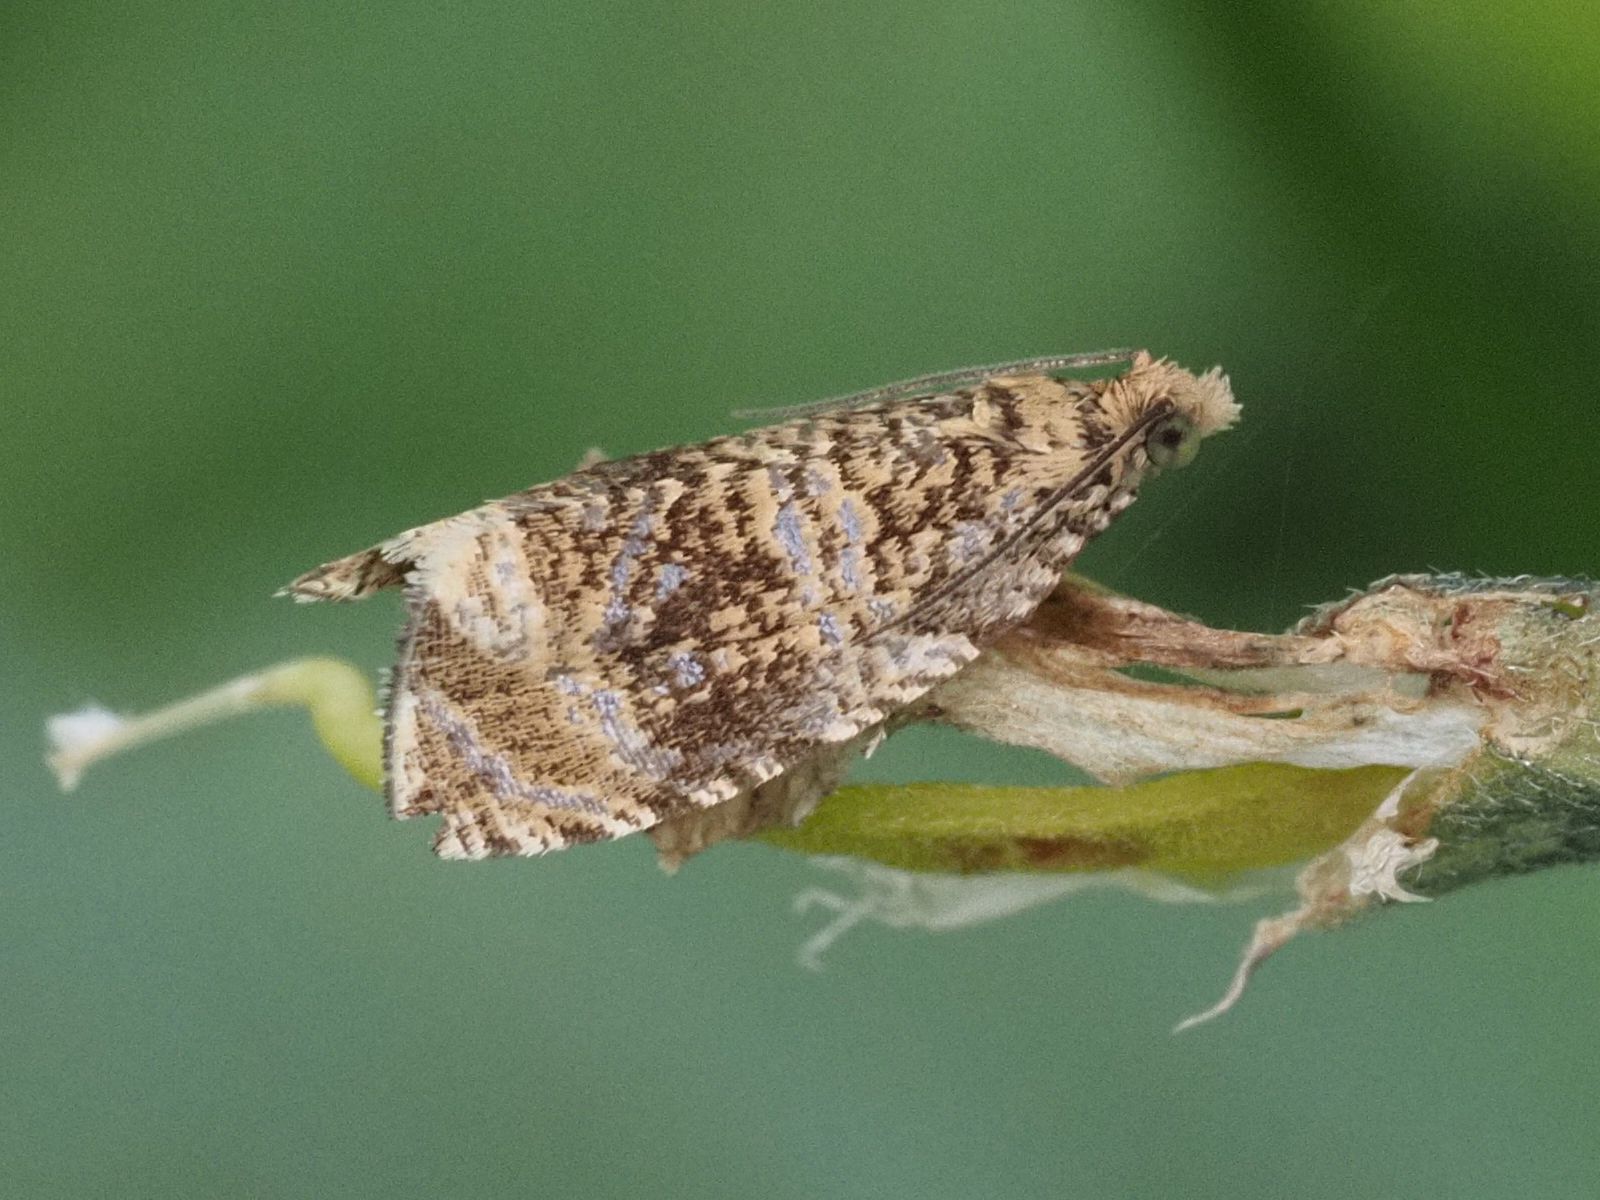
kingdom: Animalia
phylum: Arthropoda
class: Insecta
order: Lepidoptera
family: Tortricidae
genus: Syricoris
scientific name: Syricoris lacunana
